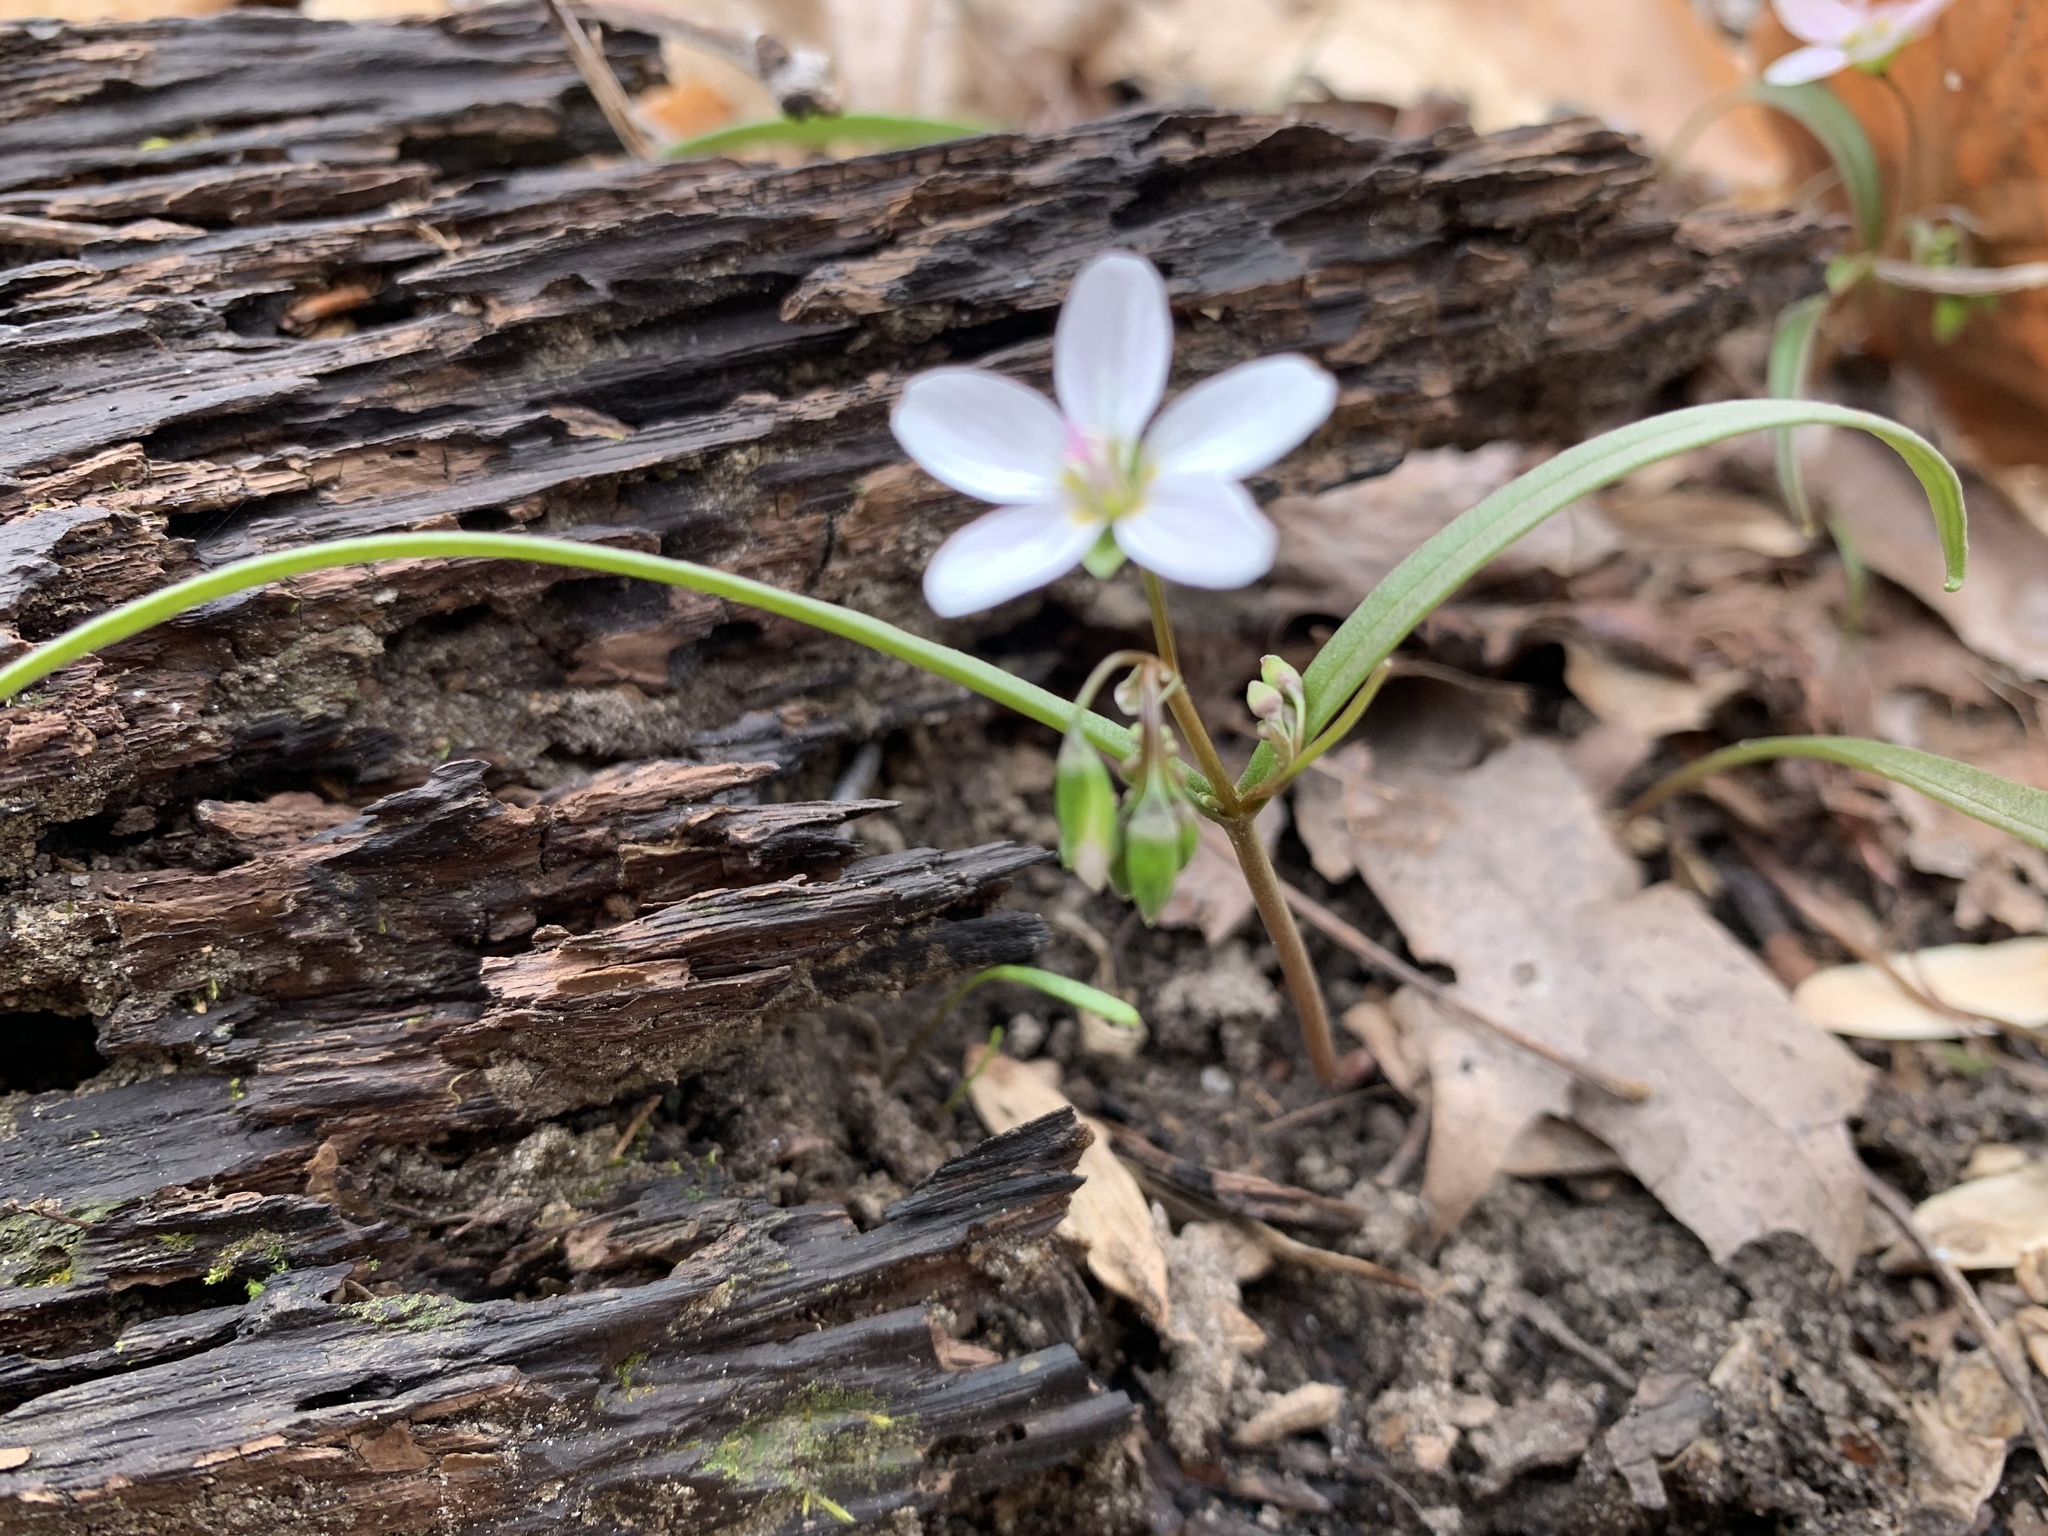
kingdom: Plantae
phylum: Tracheophyta
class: Magnoliopsida
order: Caryophyllales
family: Montiaceae
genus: Claytonia
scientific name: Claytonia virginica
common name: Virginia springbeauty
